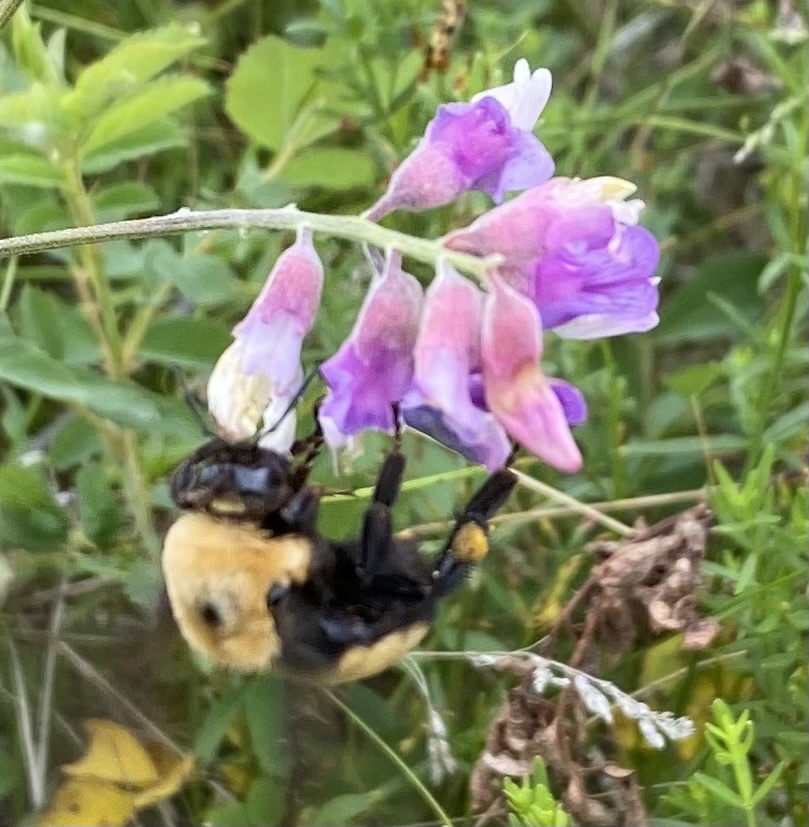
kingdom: Animalia
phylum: Arthropoda
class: Insecta
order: Hymenoptera
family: Apidae
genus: Bombus
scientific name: Bombus nevadensis
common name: Nevada bumble bee
